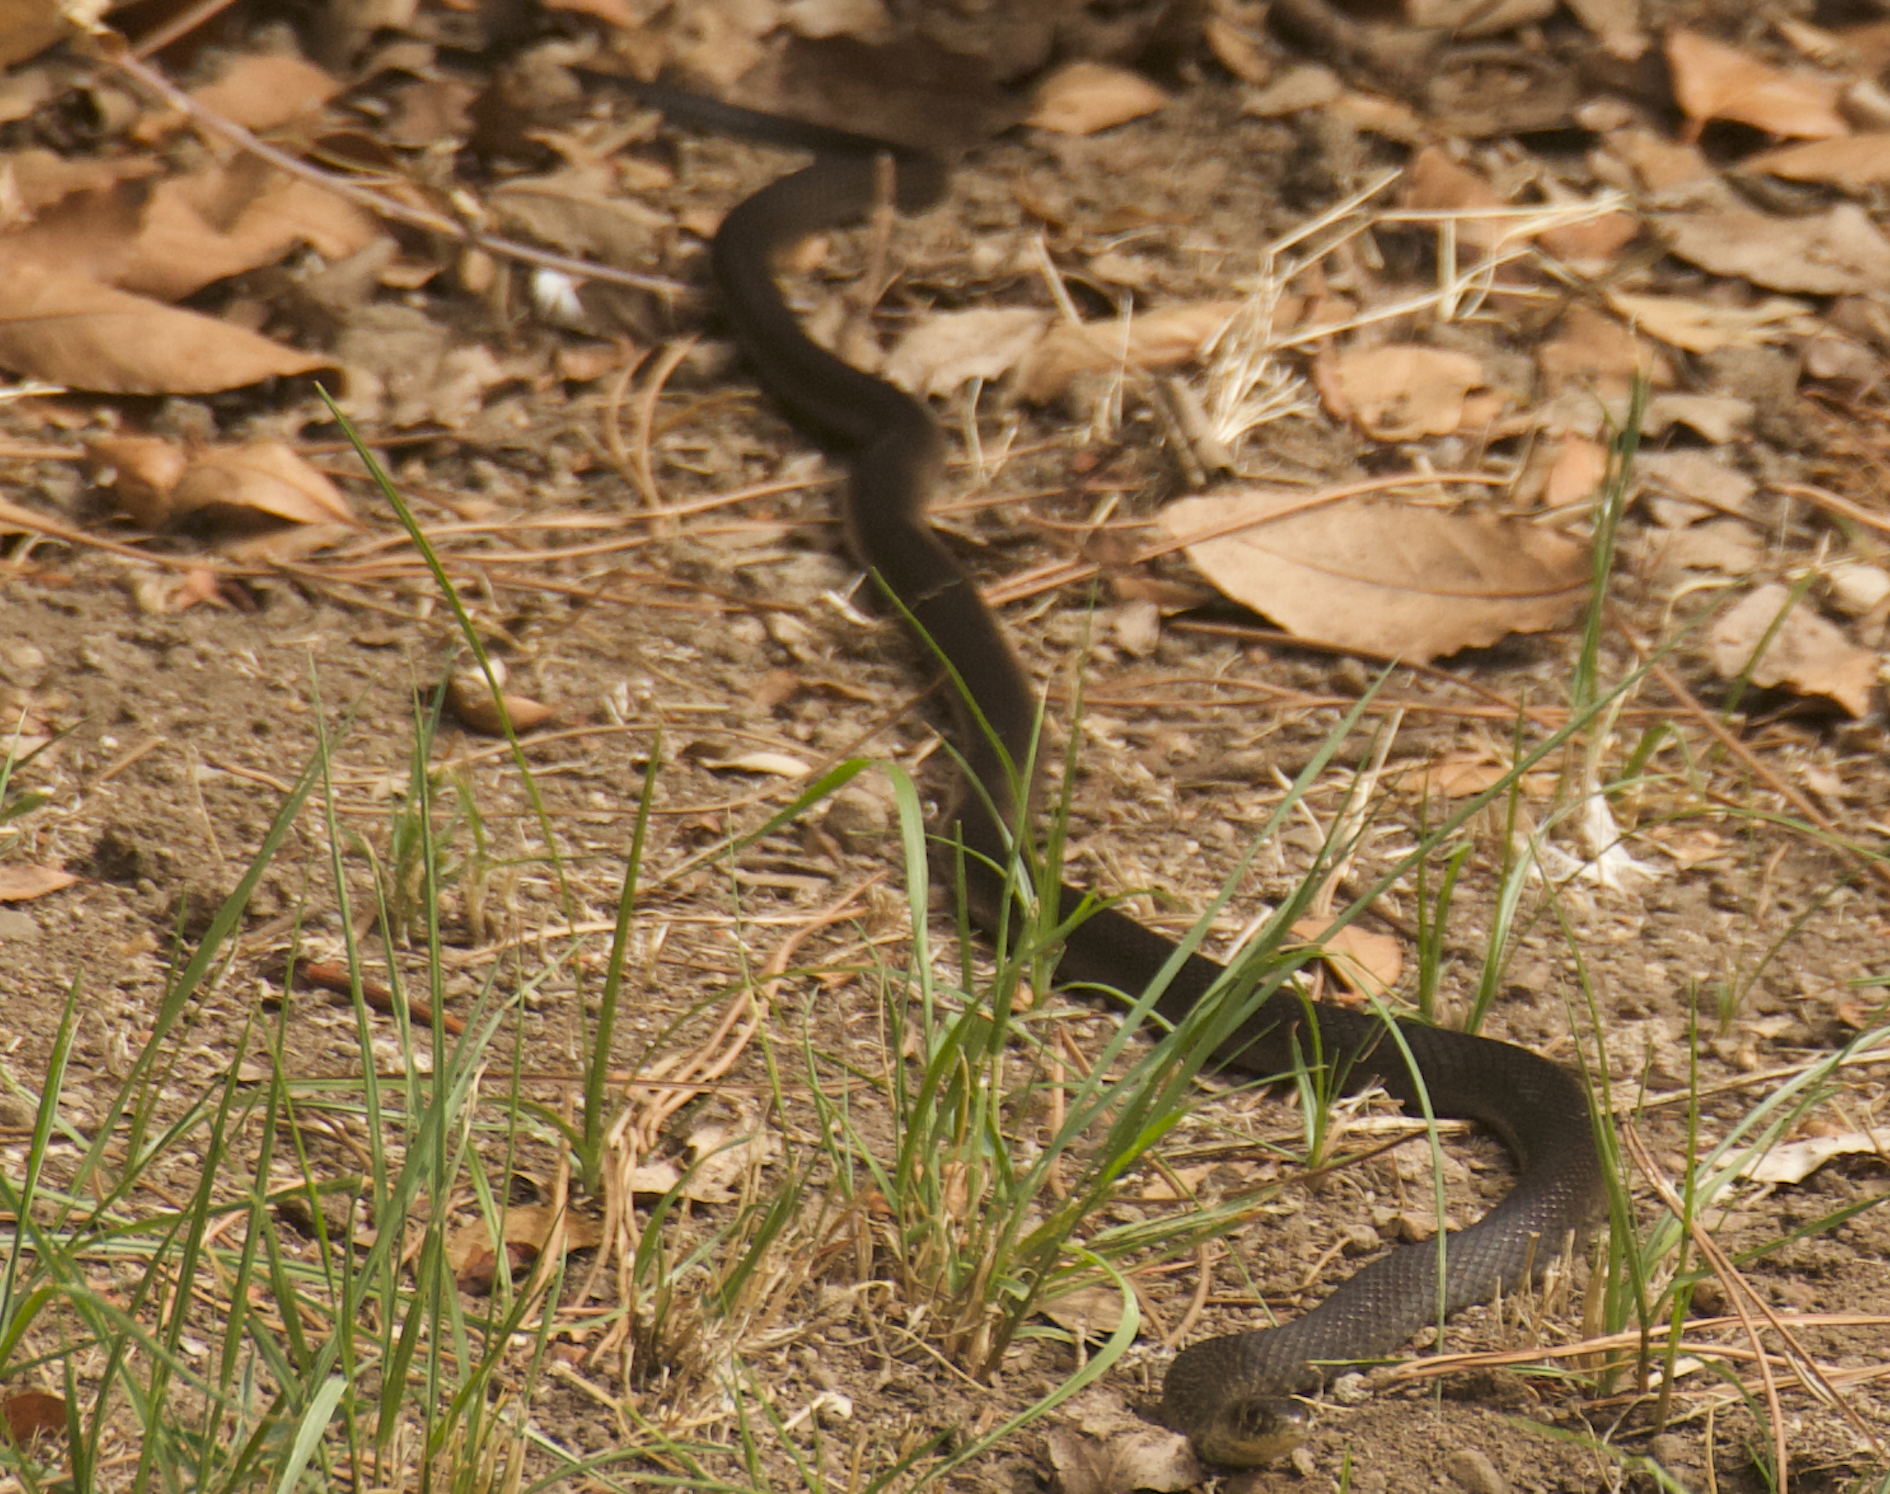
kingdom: Animalia
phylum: Chordata
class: Squamata
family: Colubridae
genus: Hierophis
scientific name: Hierophis viridiflavus
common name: Green whip snake
